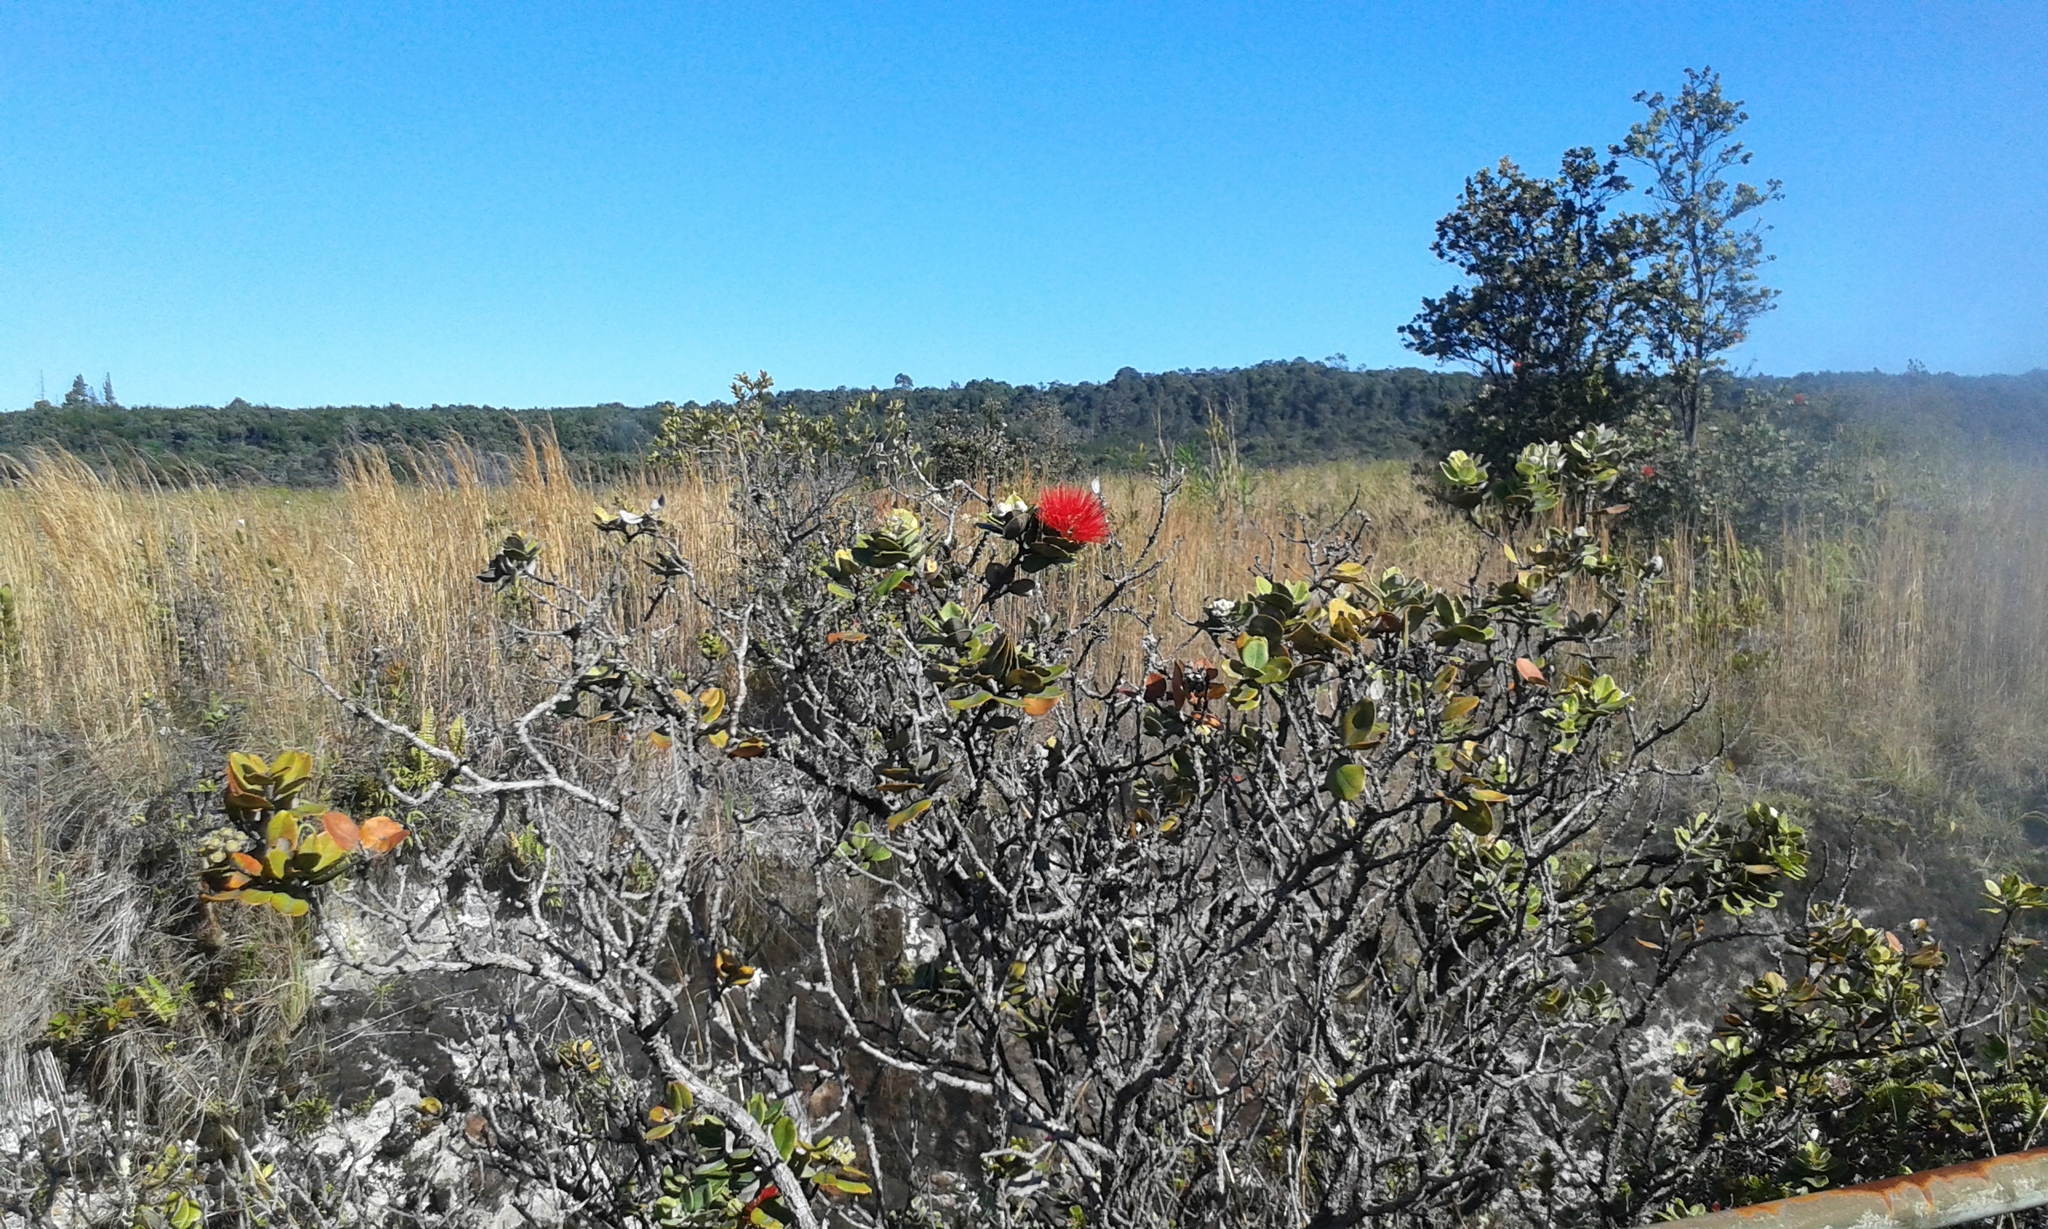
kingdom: Plantae
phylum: Tracheophyta
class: Magnoliopsida
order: Myrtales
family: Myrtaceae
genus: Metrosideros
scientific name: Metrosideros polymorpha
